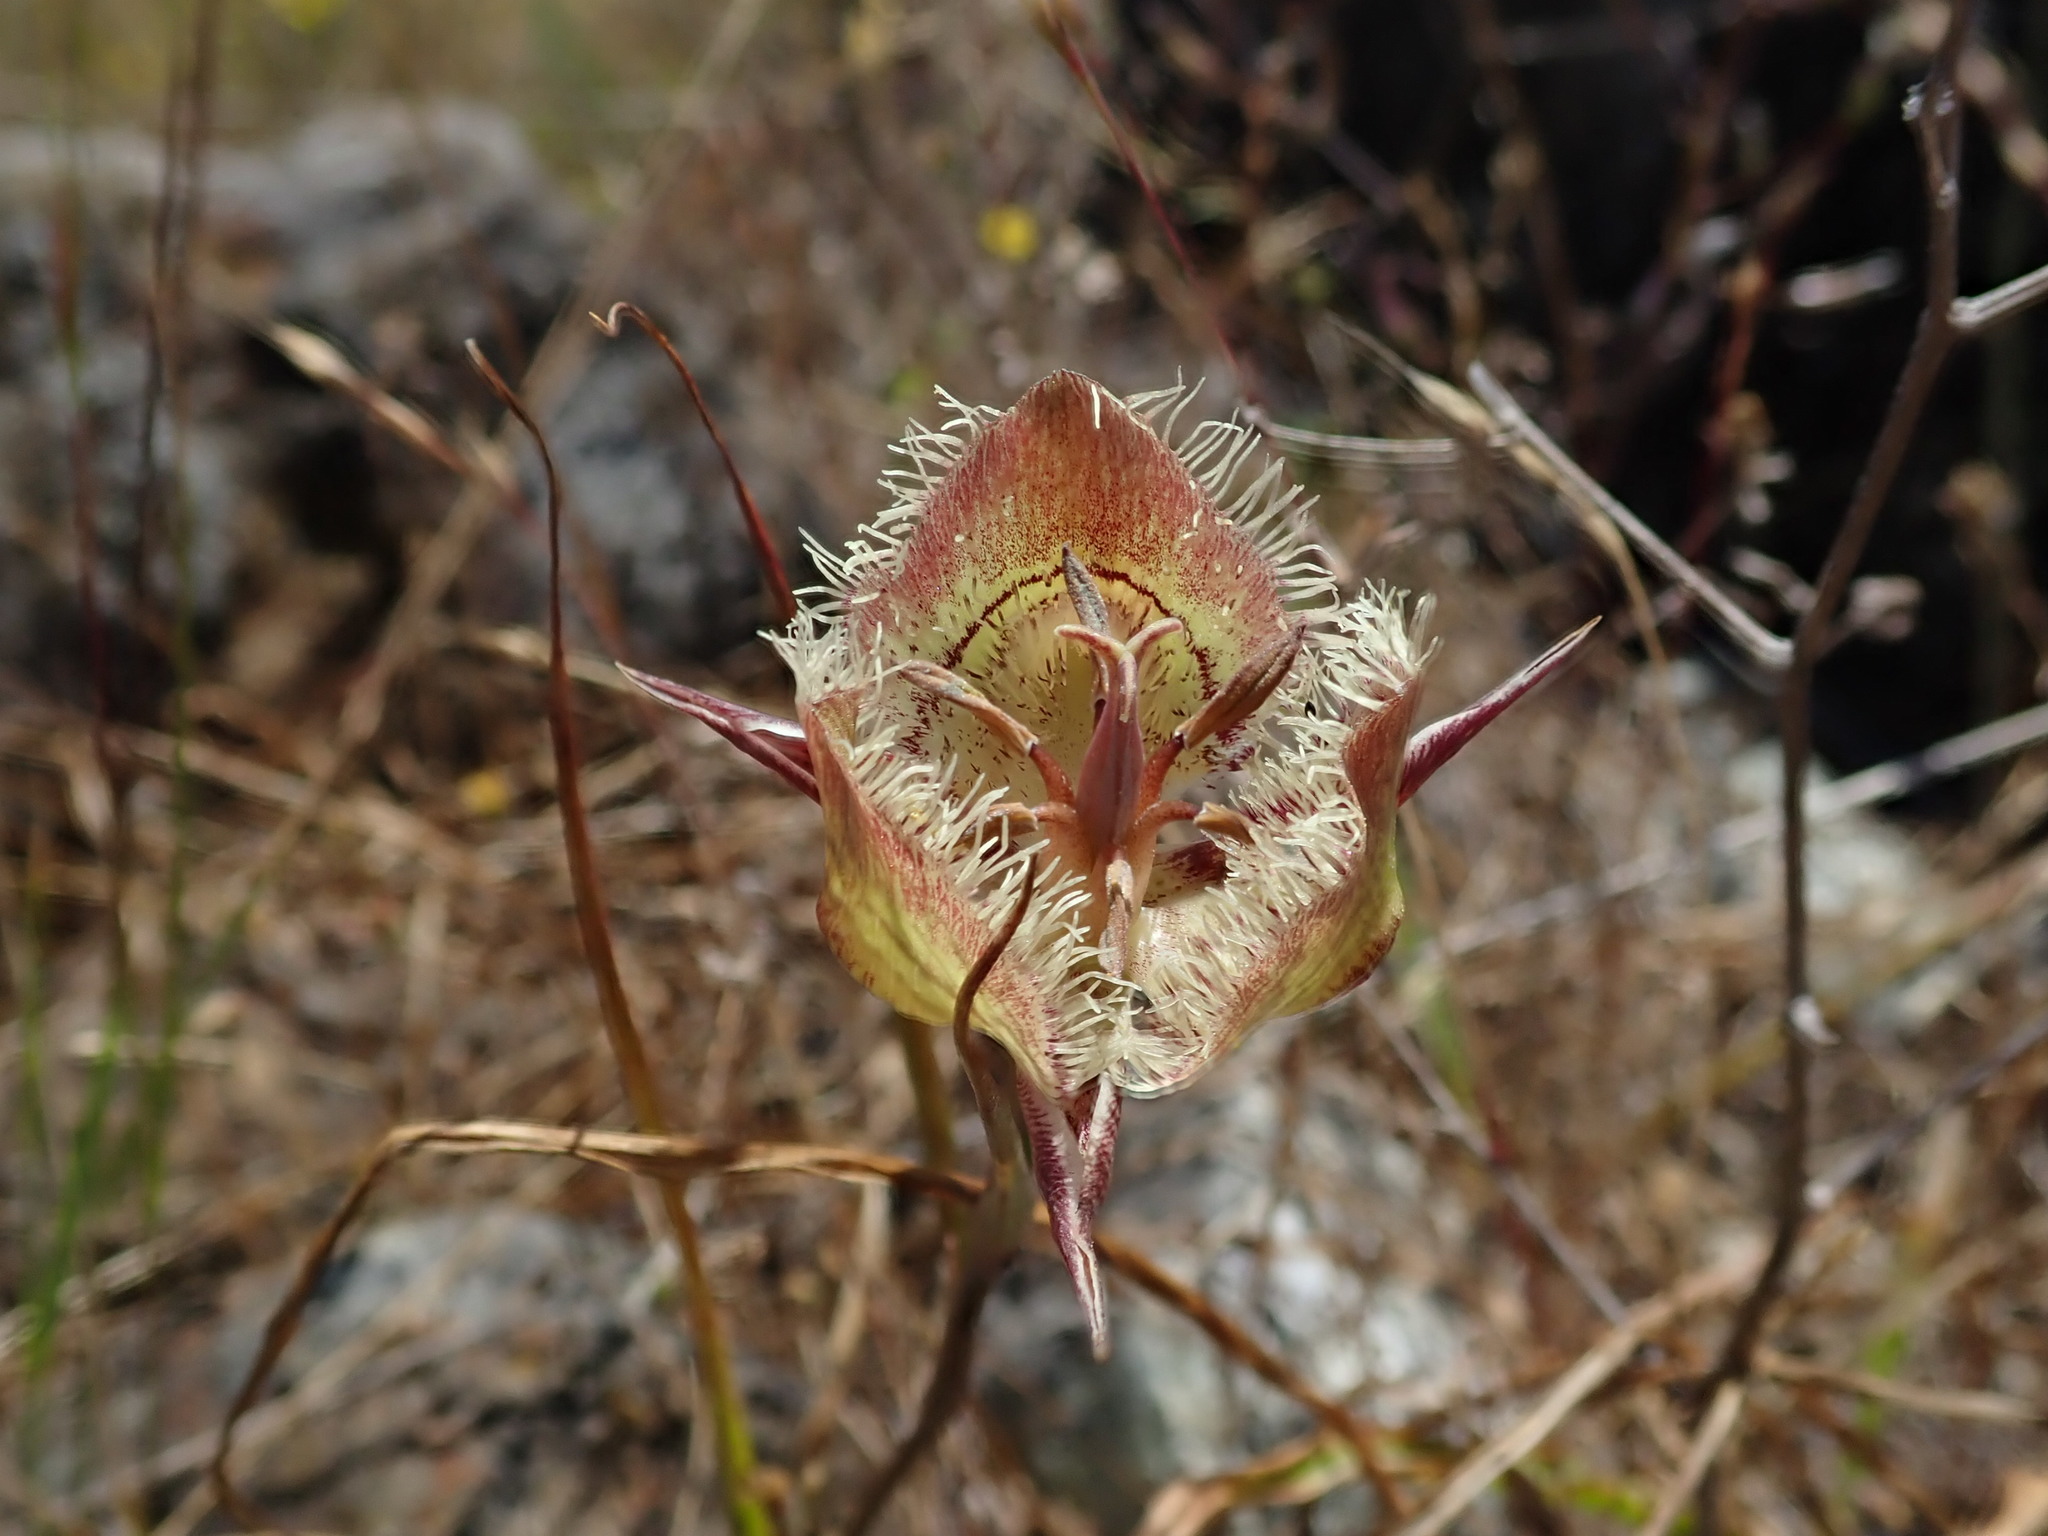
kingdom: Plantae
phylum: Tracheophyta
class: Liliopsida
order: Liliales
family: Liliaceae
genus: Calochortus
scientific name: Calochortus tiburonensis
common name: Tiburon mariposa-lily
